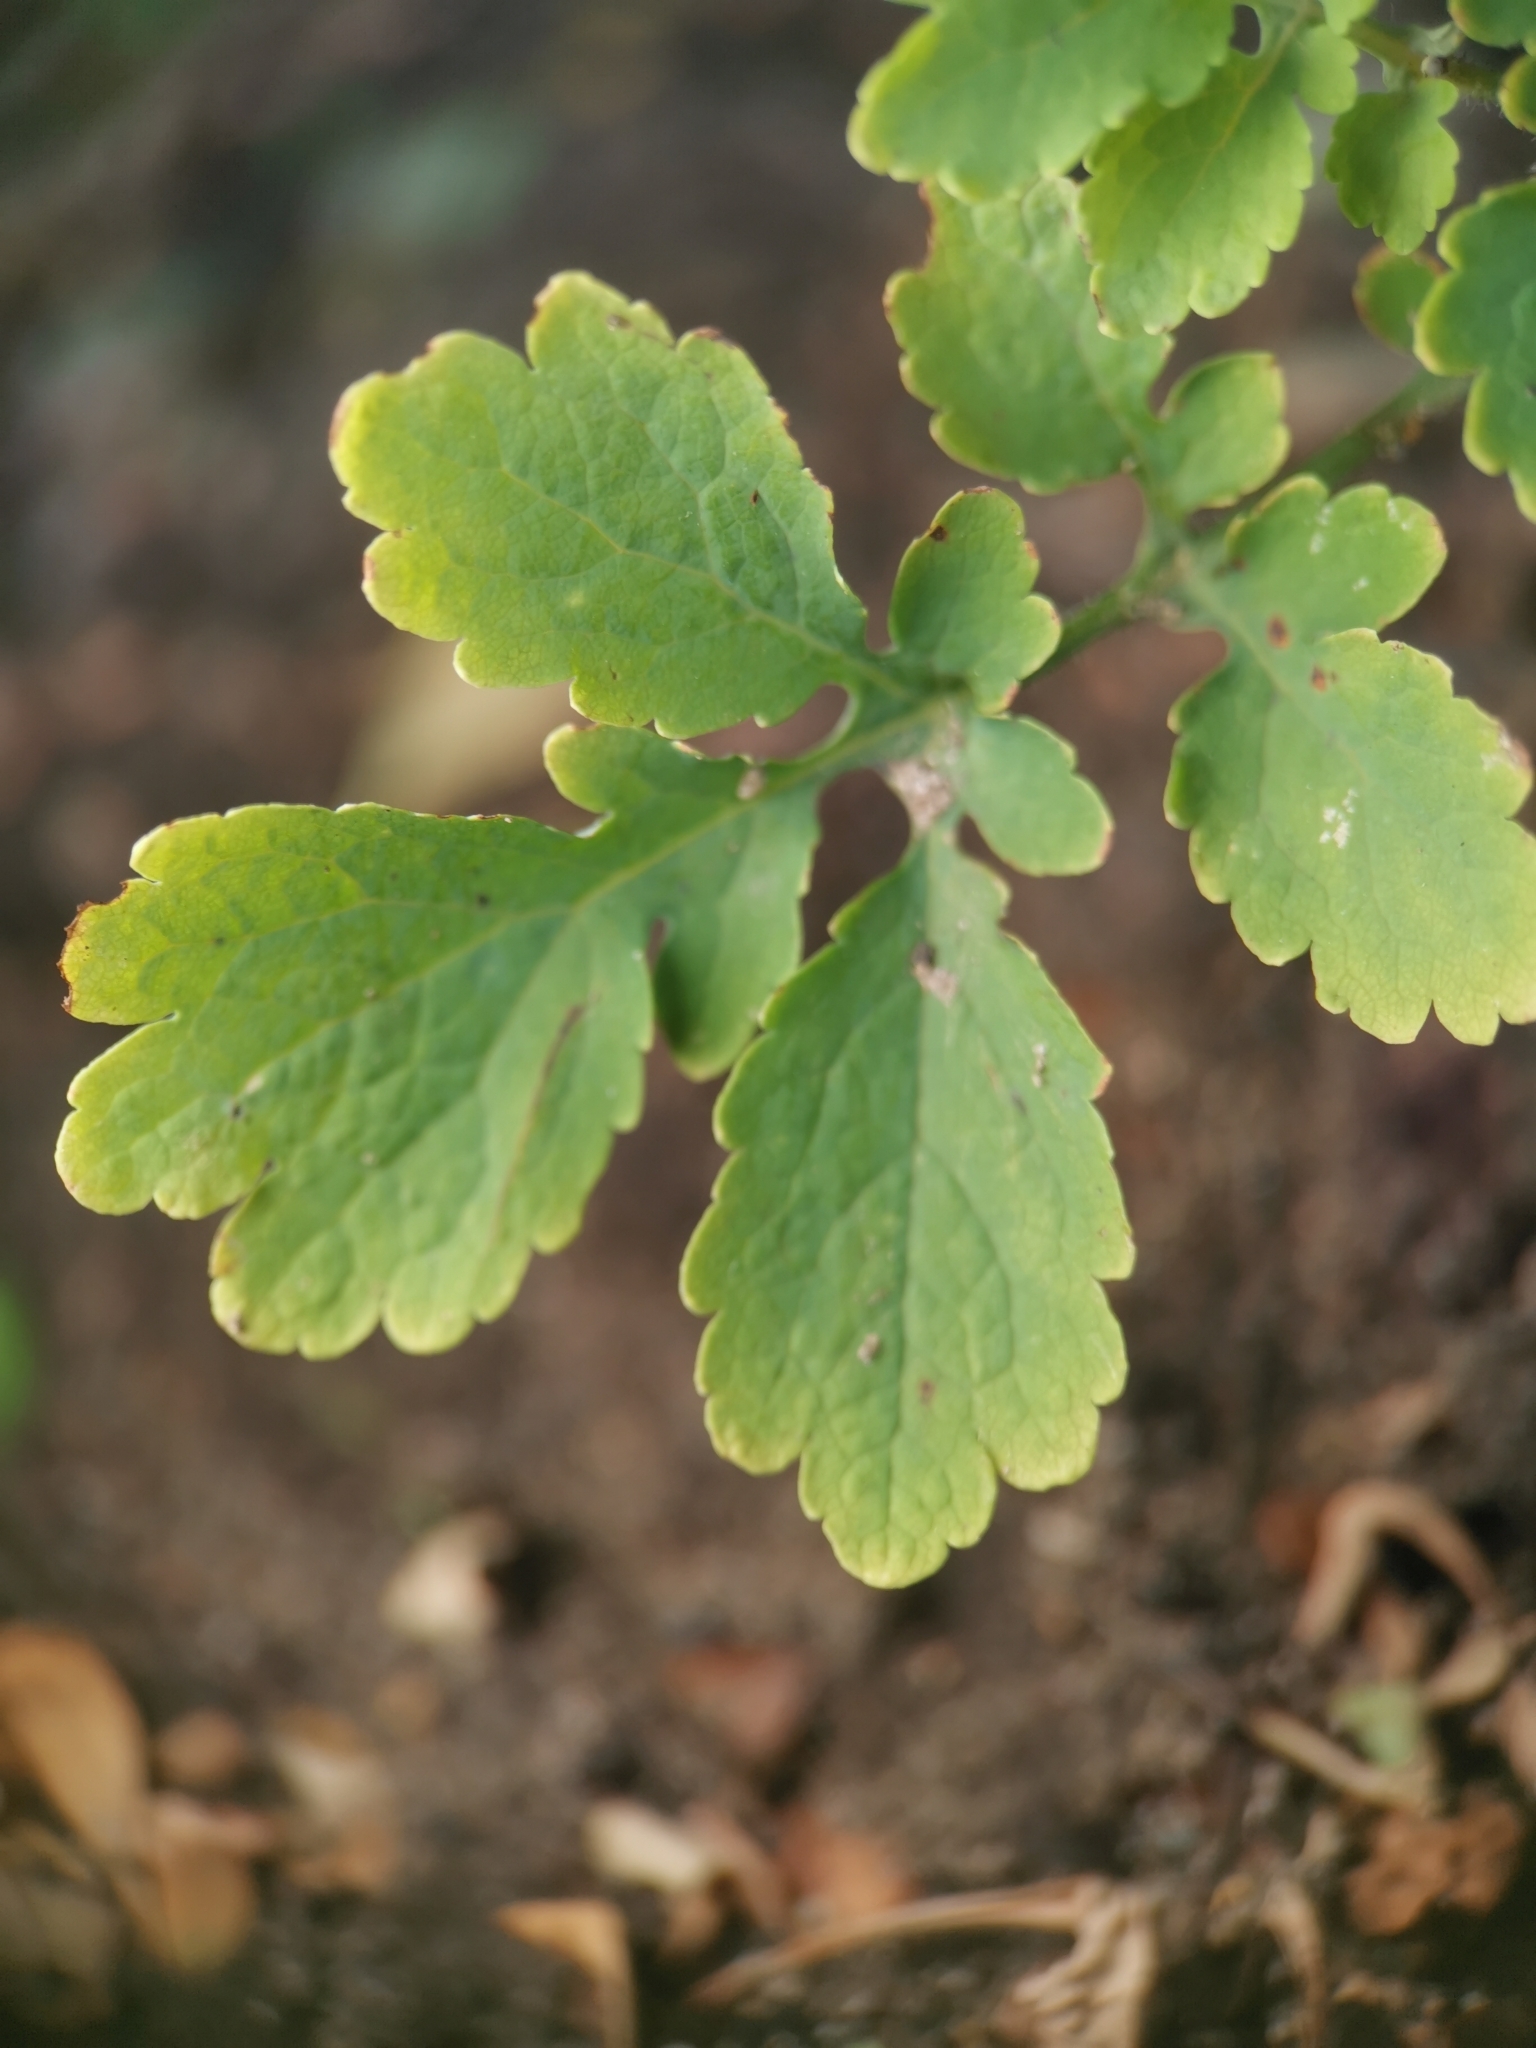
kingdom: Plantae
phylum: Tracheophyta
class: Magnoliopsida
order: Ranunculales
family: Papaveraceae
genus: Chelidonium
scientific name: Chelidonium majus
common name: Greater celandine
